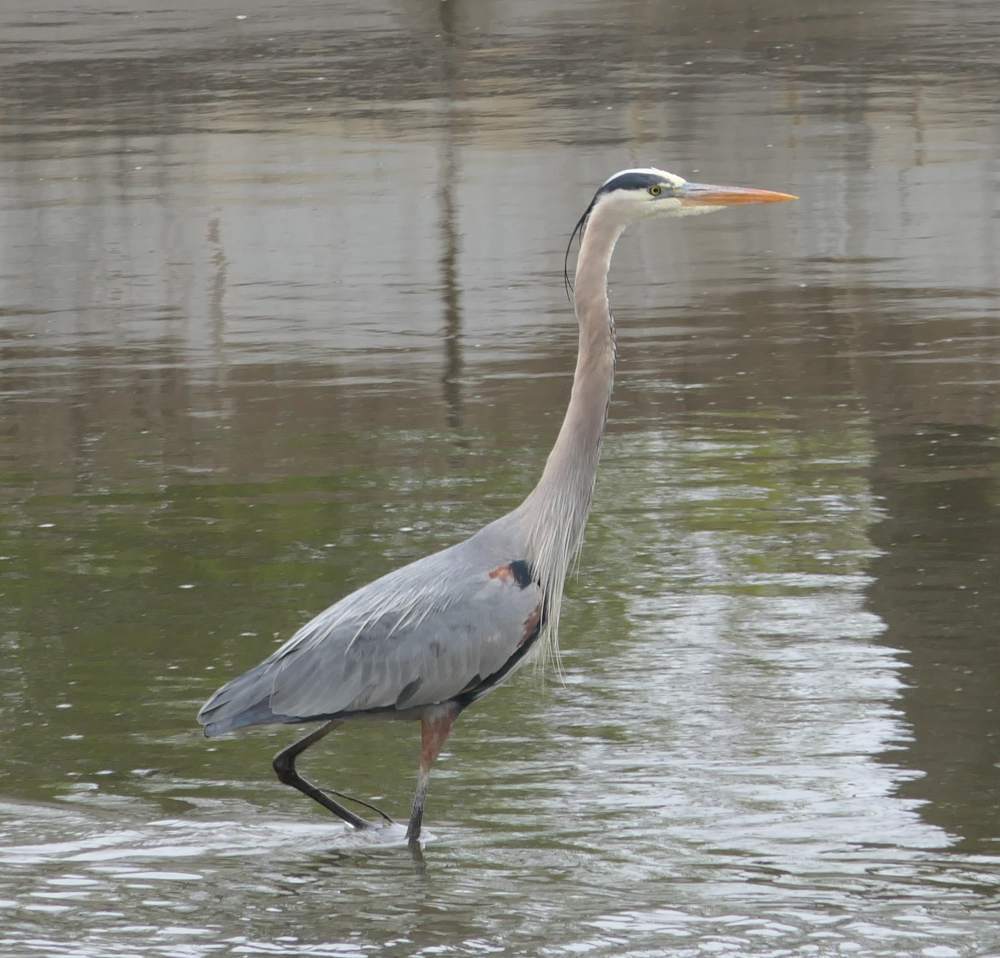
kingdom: Animalia
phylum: Chordata
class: Aves
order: Pelecaniformes
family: Ardeidae
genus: Ardea
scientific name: Ardea herodias
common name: Great blue heron
